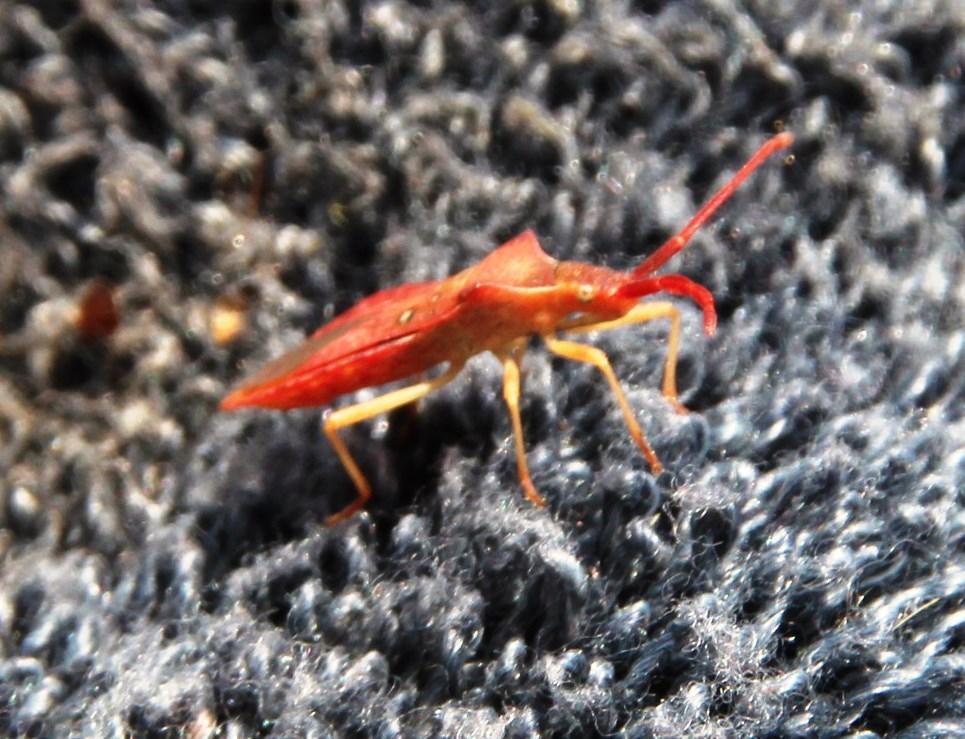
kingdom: Animalia
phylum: Arthropoda
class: Insecta
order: Hemiptera
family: Coreidae
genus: Haploprocta
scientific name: Haploprocta sulcicornis
